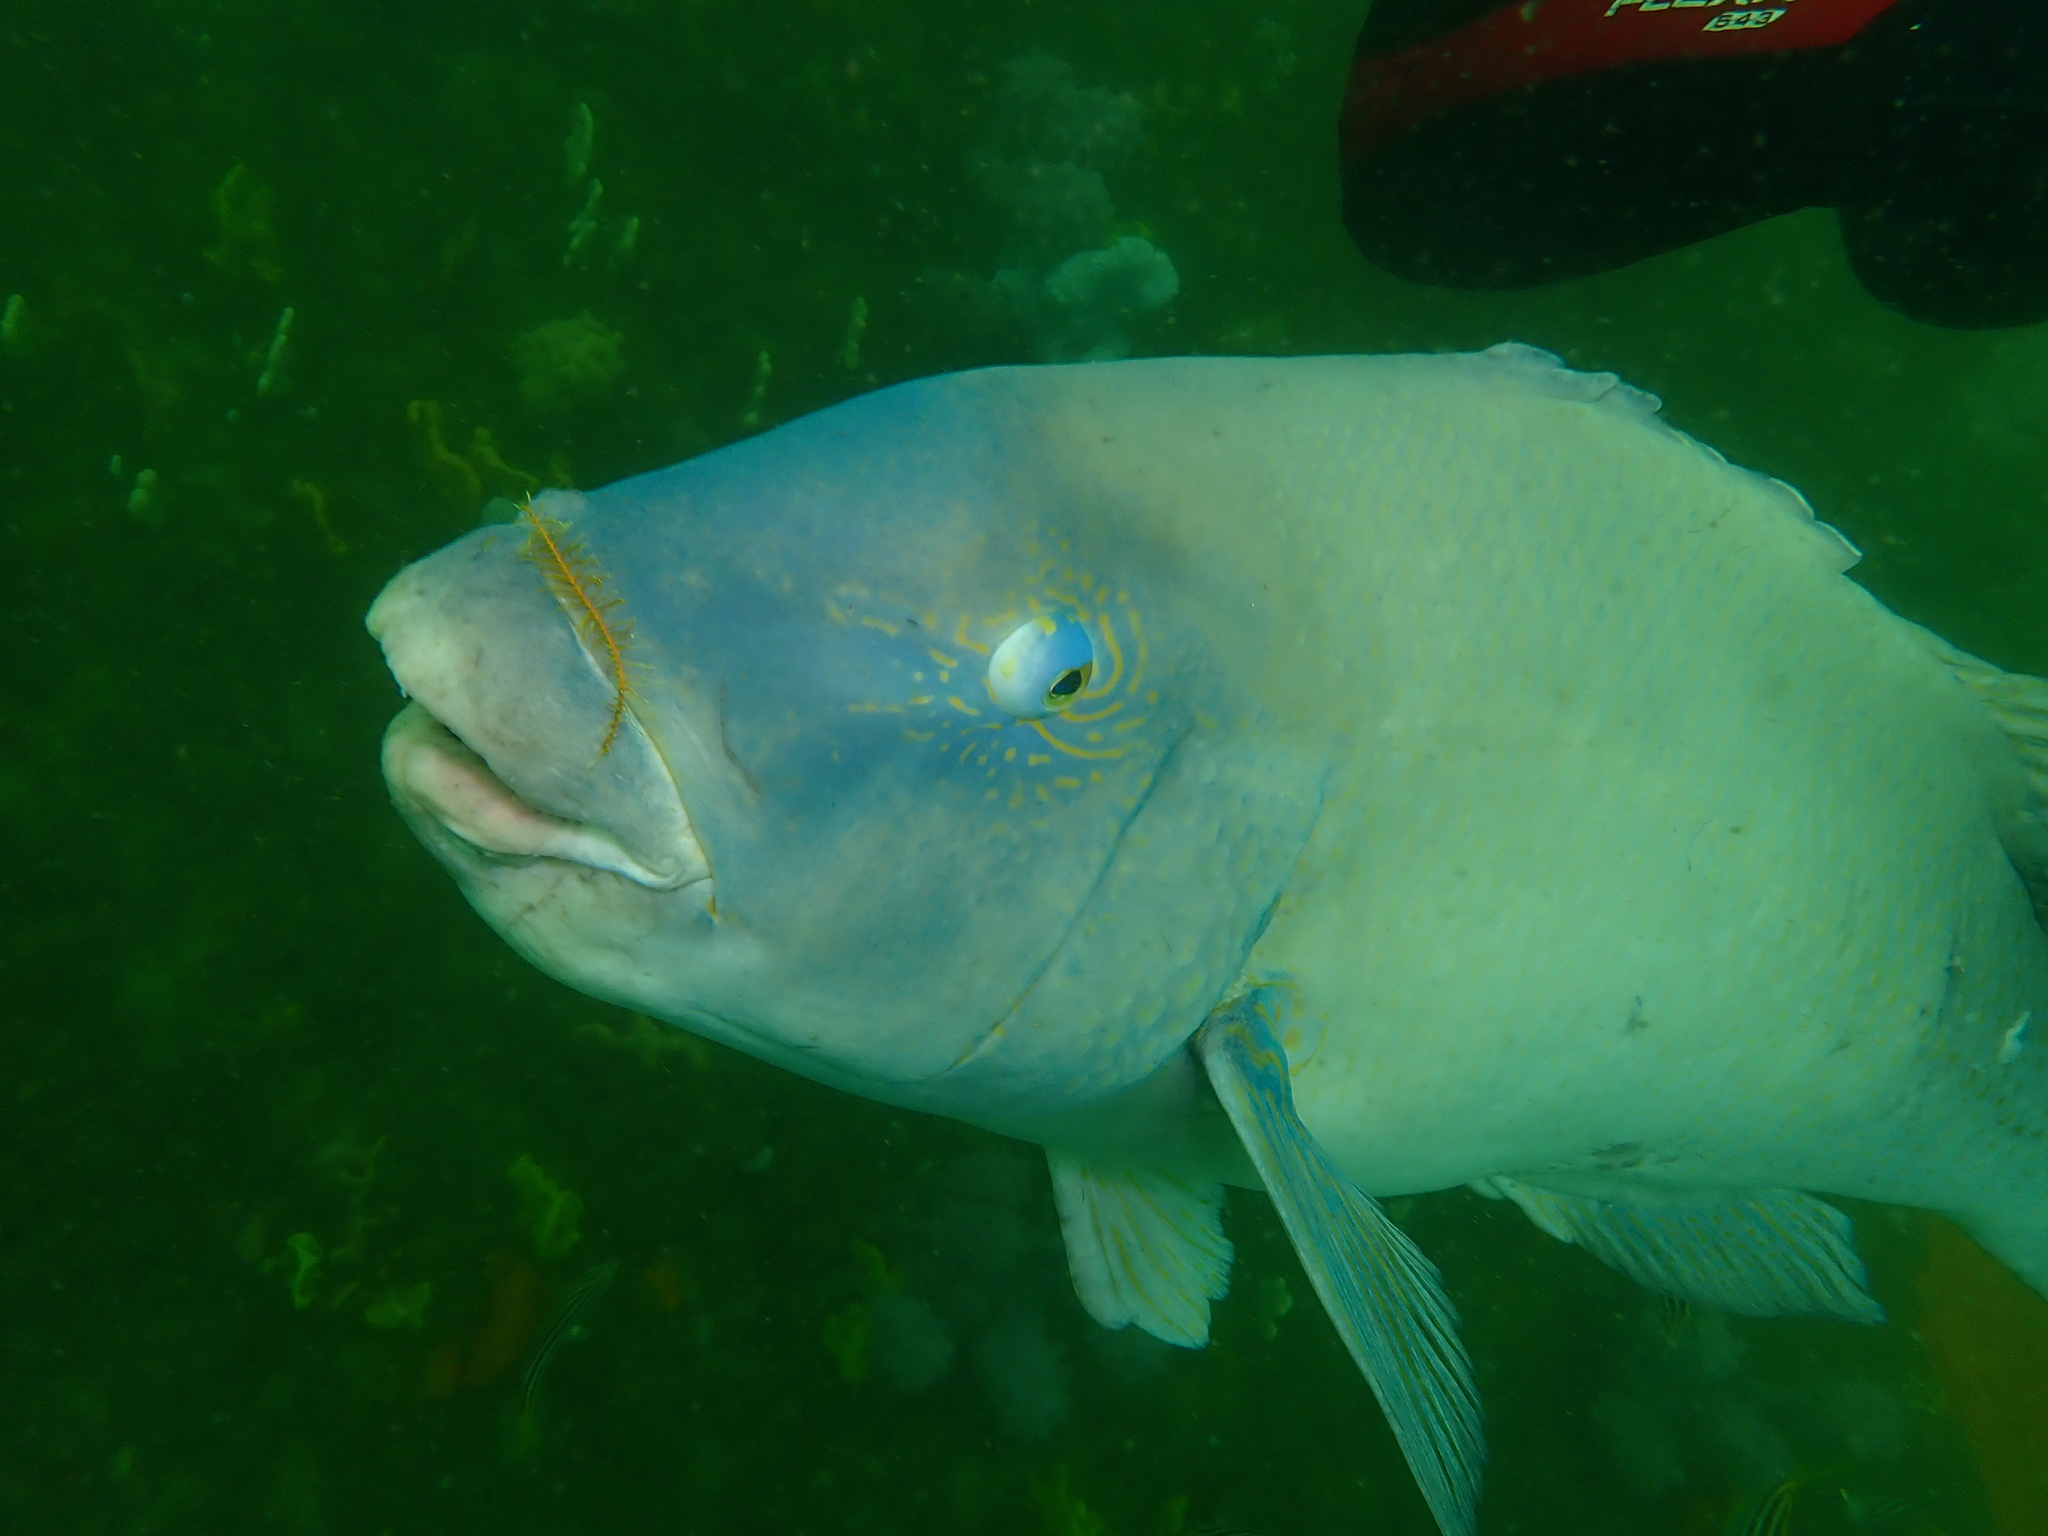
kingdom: Animalia
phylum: Chordata
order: Perciformes
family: Labridae
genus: Achoerodus
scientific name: Achoerodus viridis
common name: Brown groper
